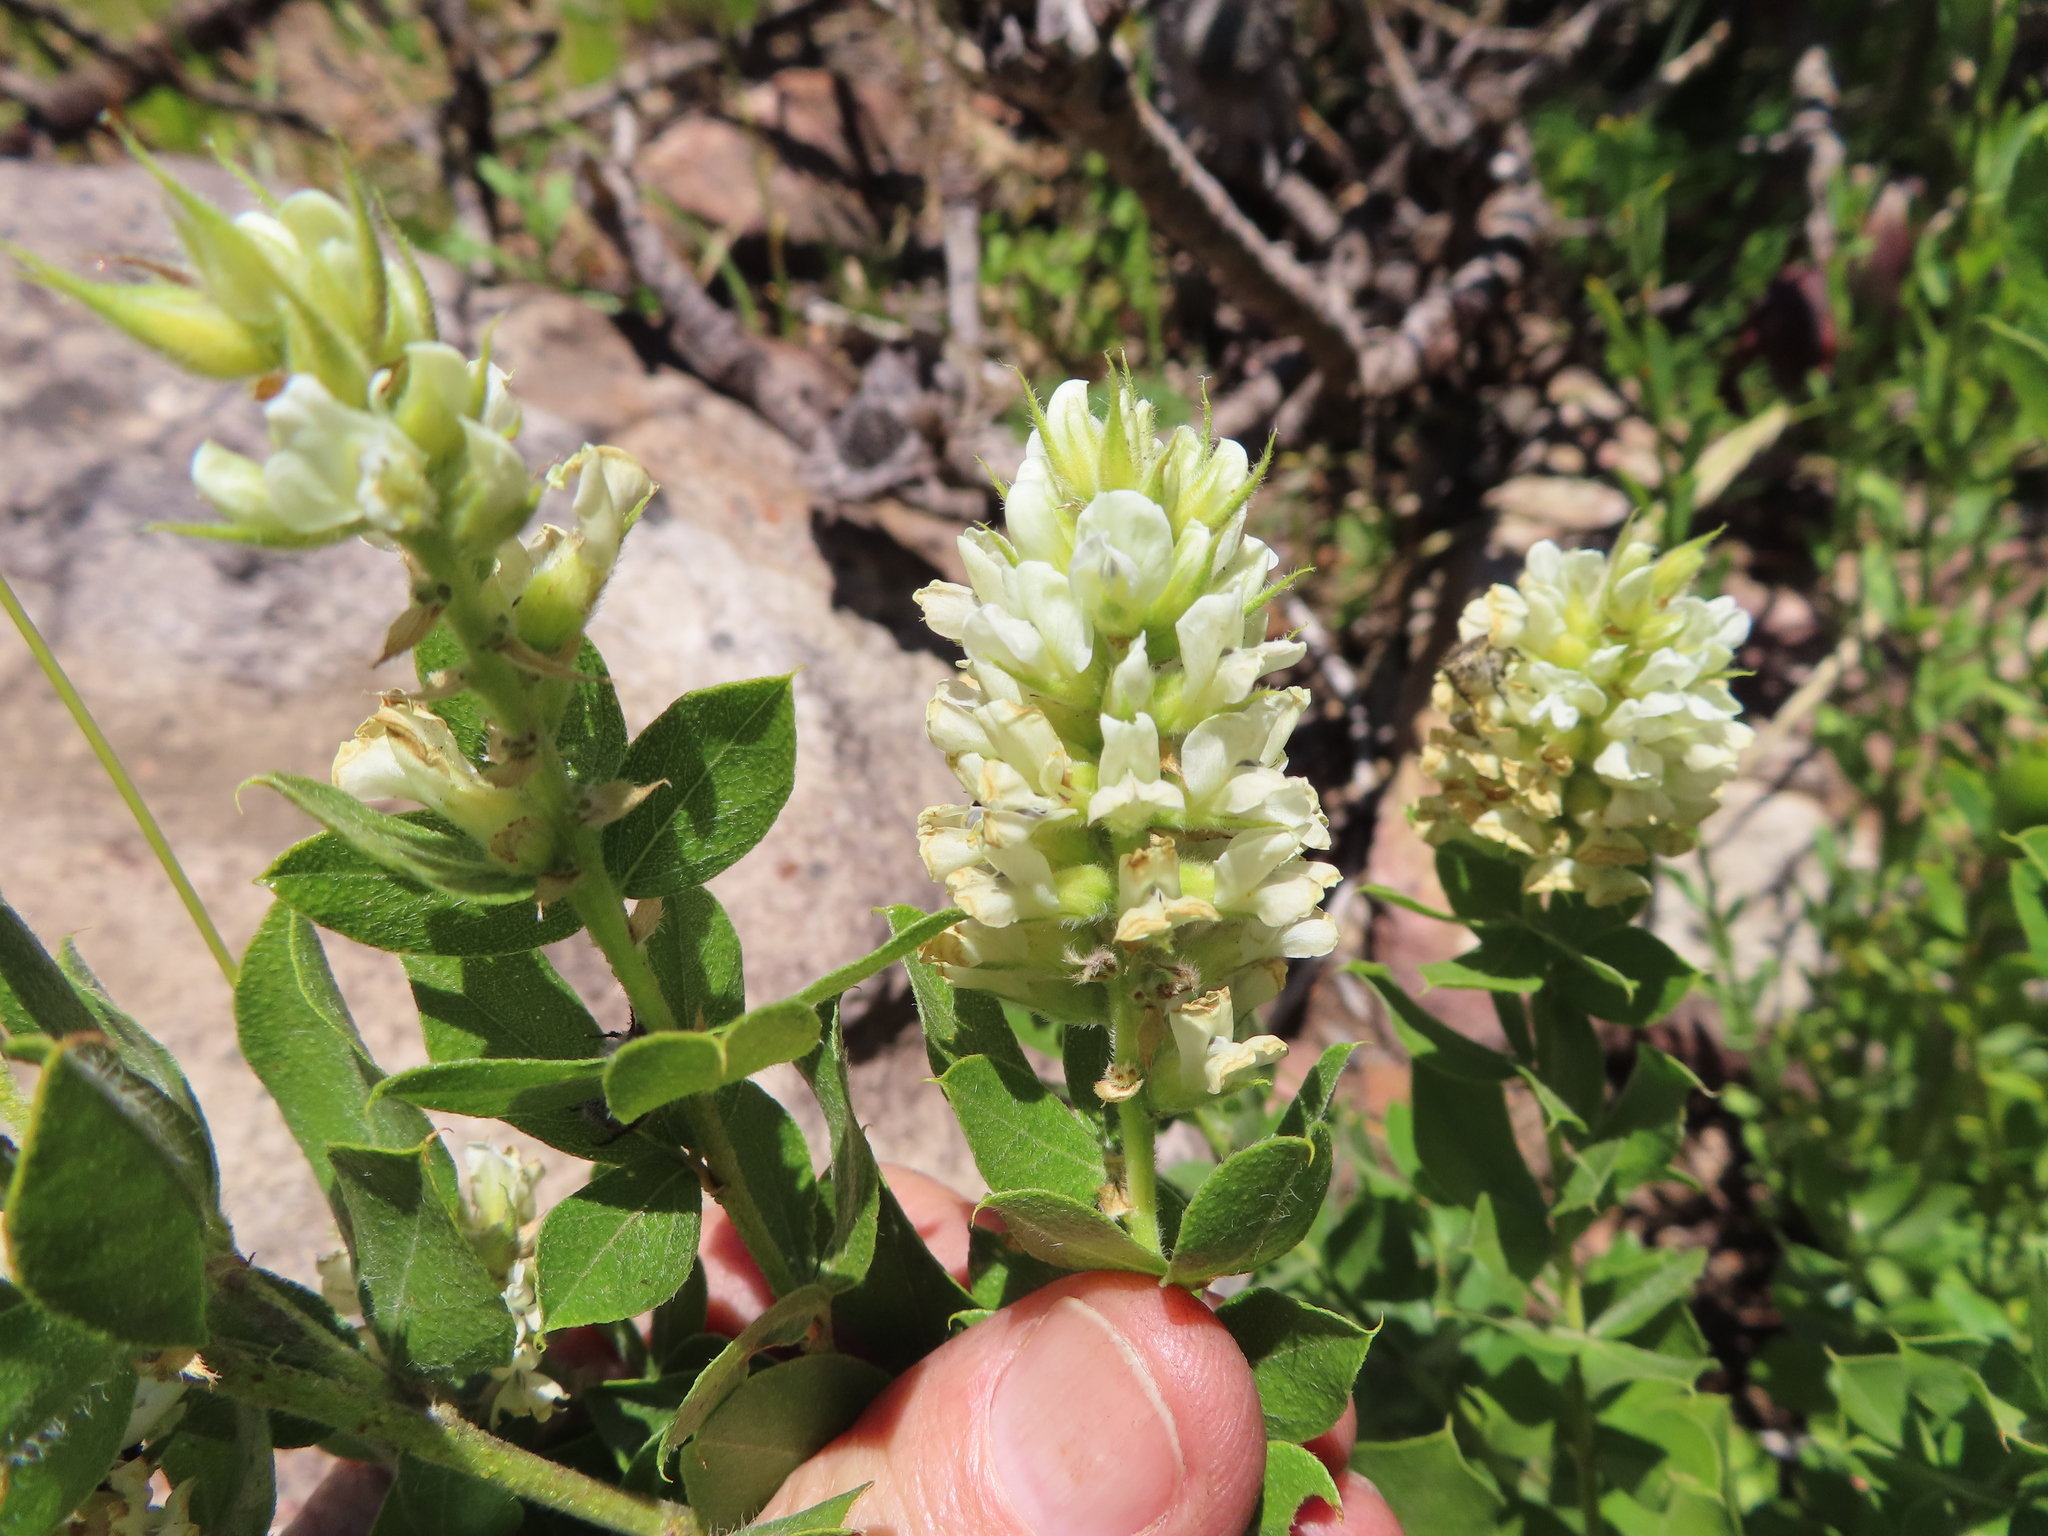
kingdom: Plantae
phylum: Tracheophyta
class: Magnoliopsida
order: Fabales
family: Fabaceae
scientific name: Fabaceae
